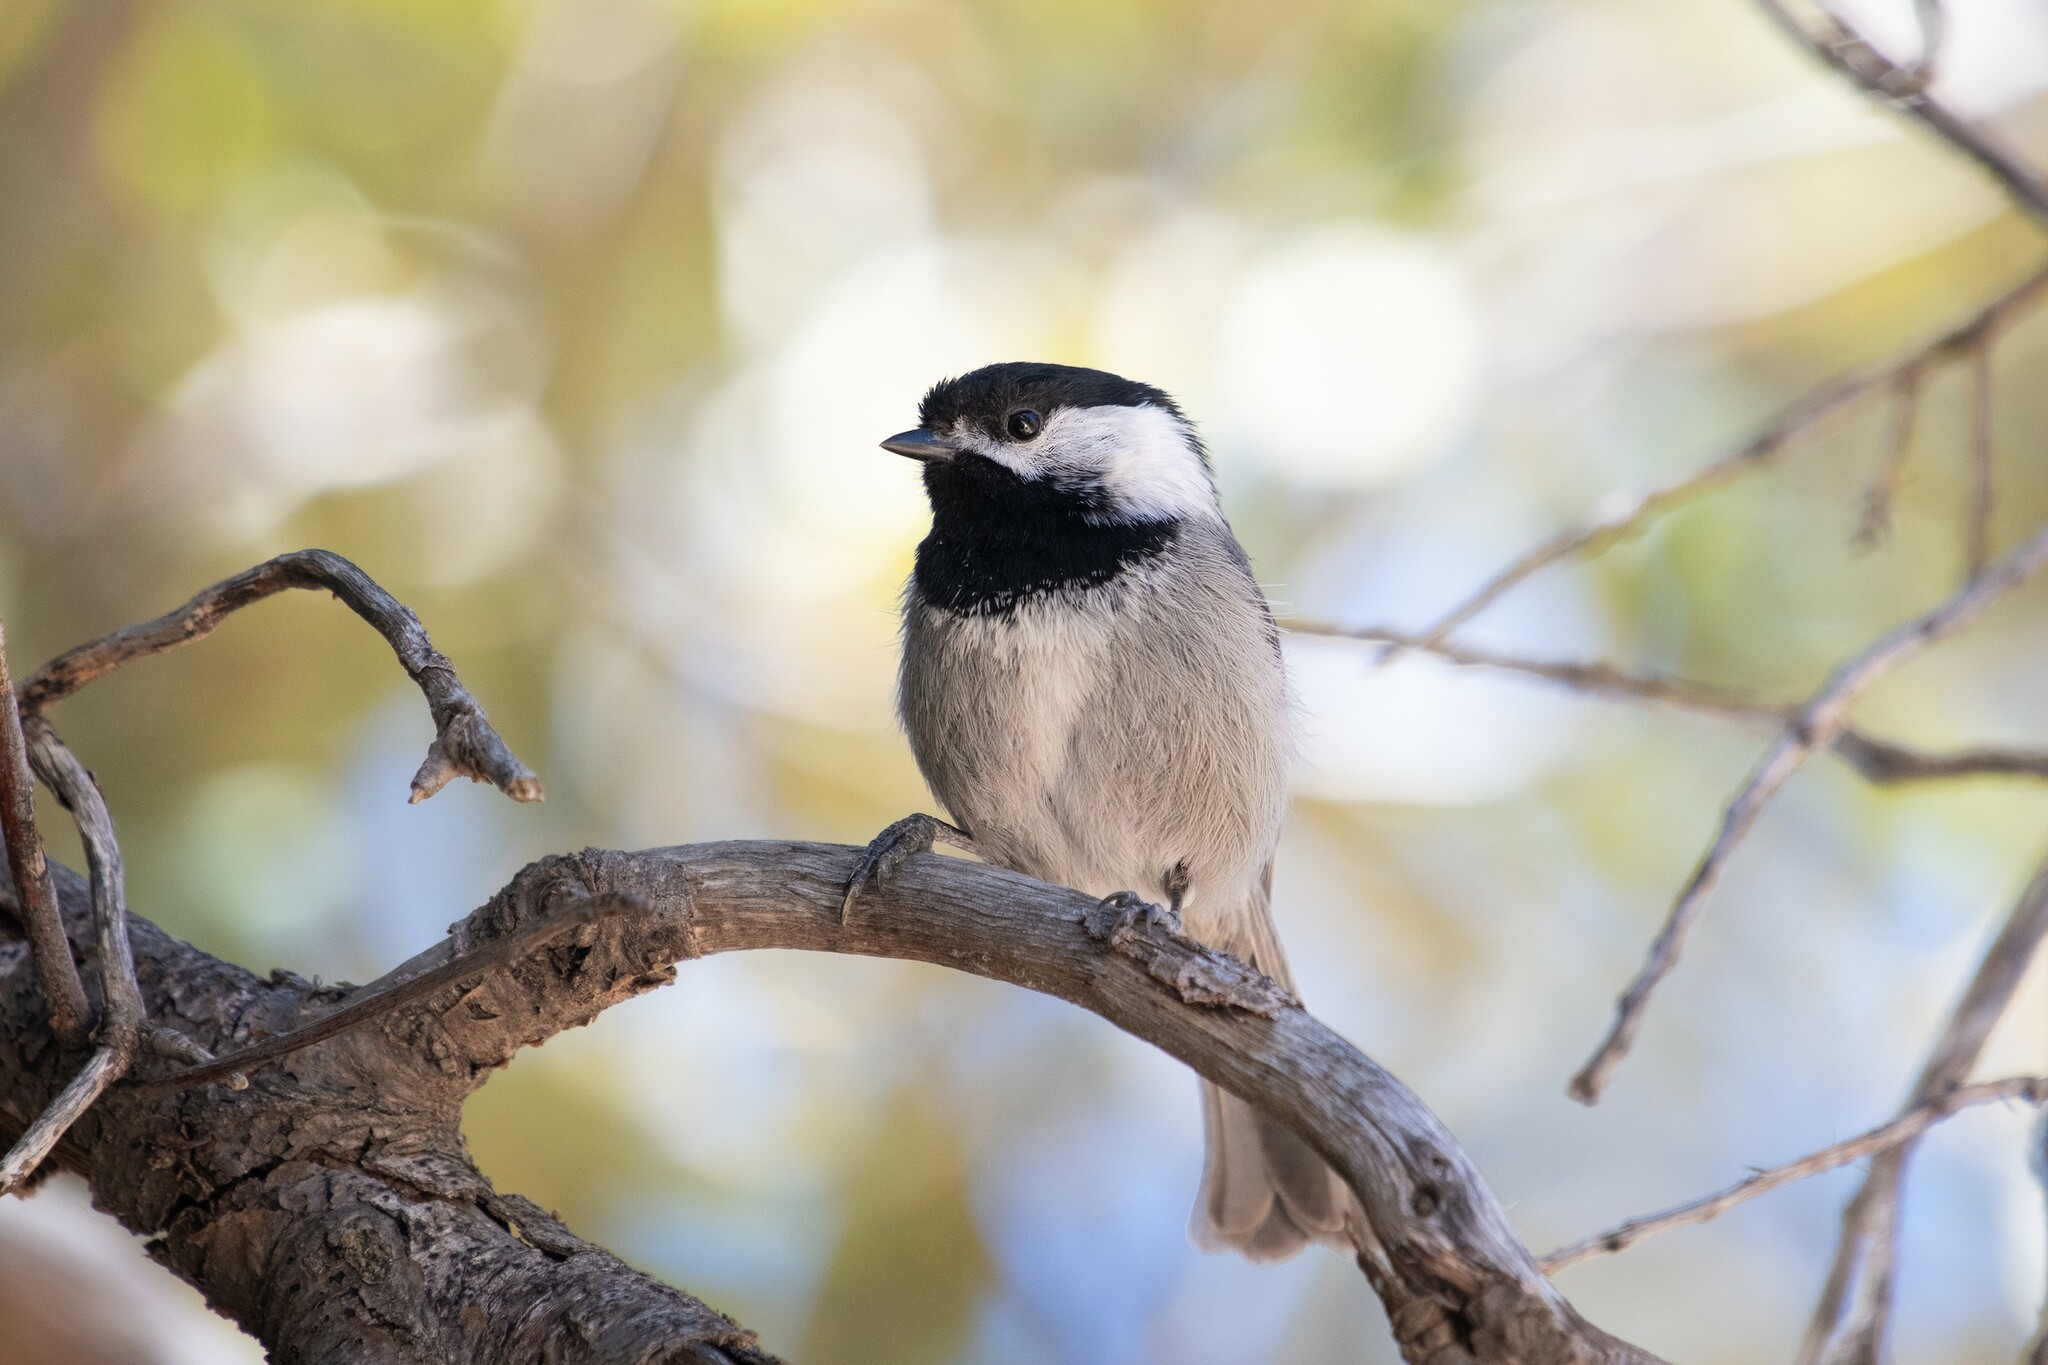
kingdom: Animalia
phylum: Chordata
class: Aves
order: Passeriformes
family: Paridae
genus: Poecile
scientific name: Poecile sclateri
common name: Mexican chickadee
